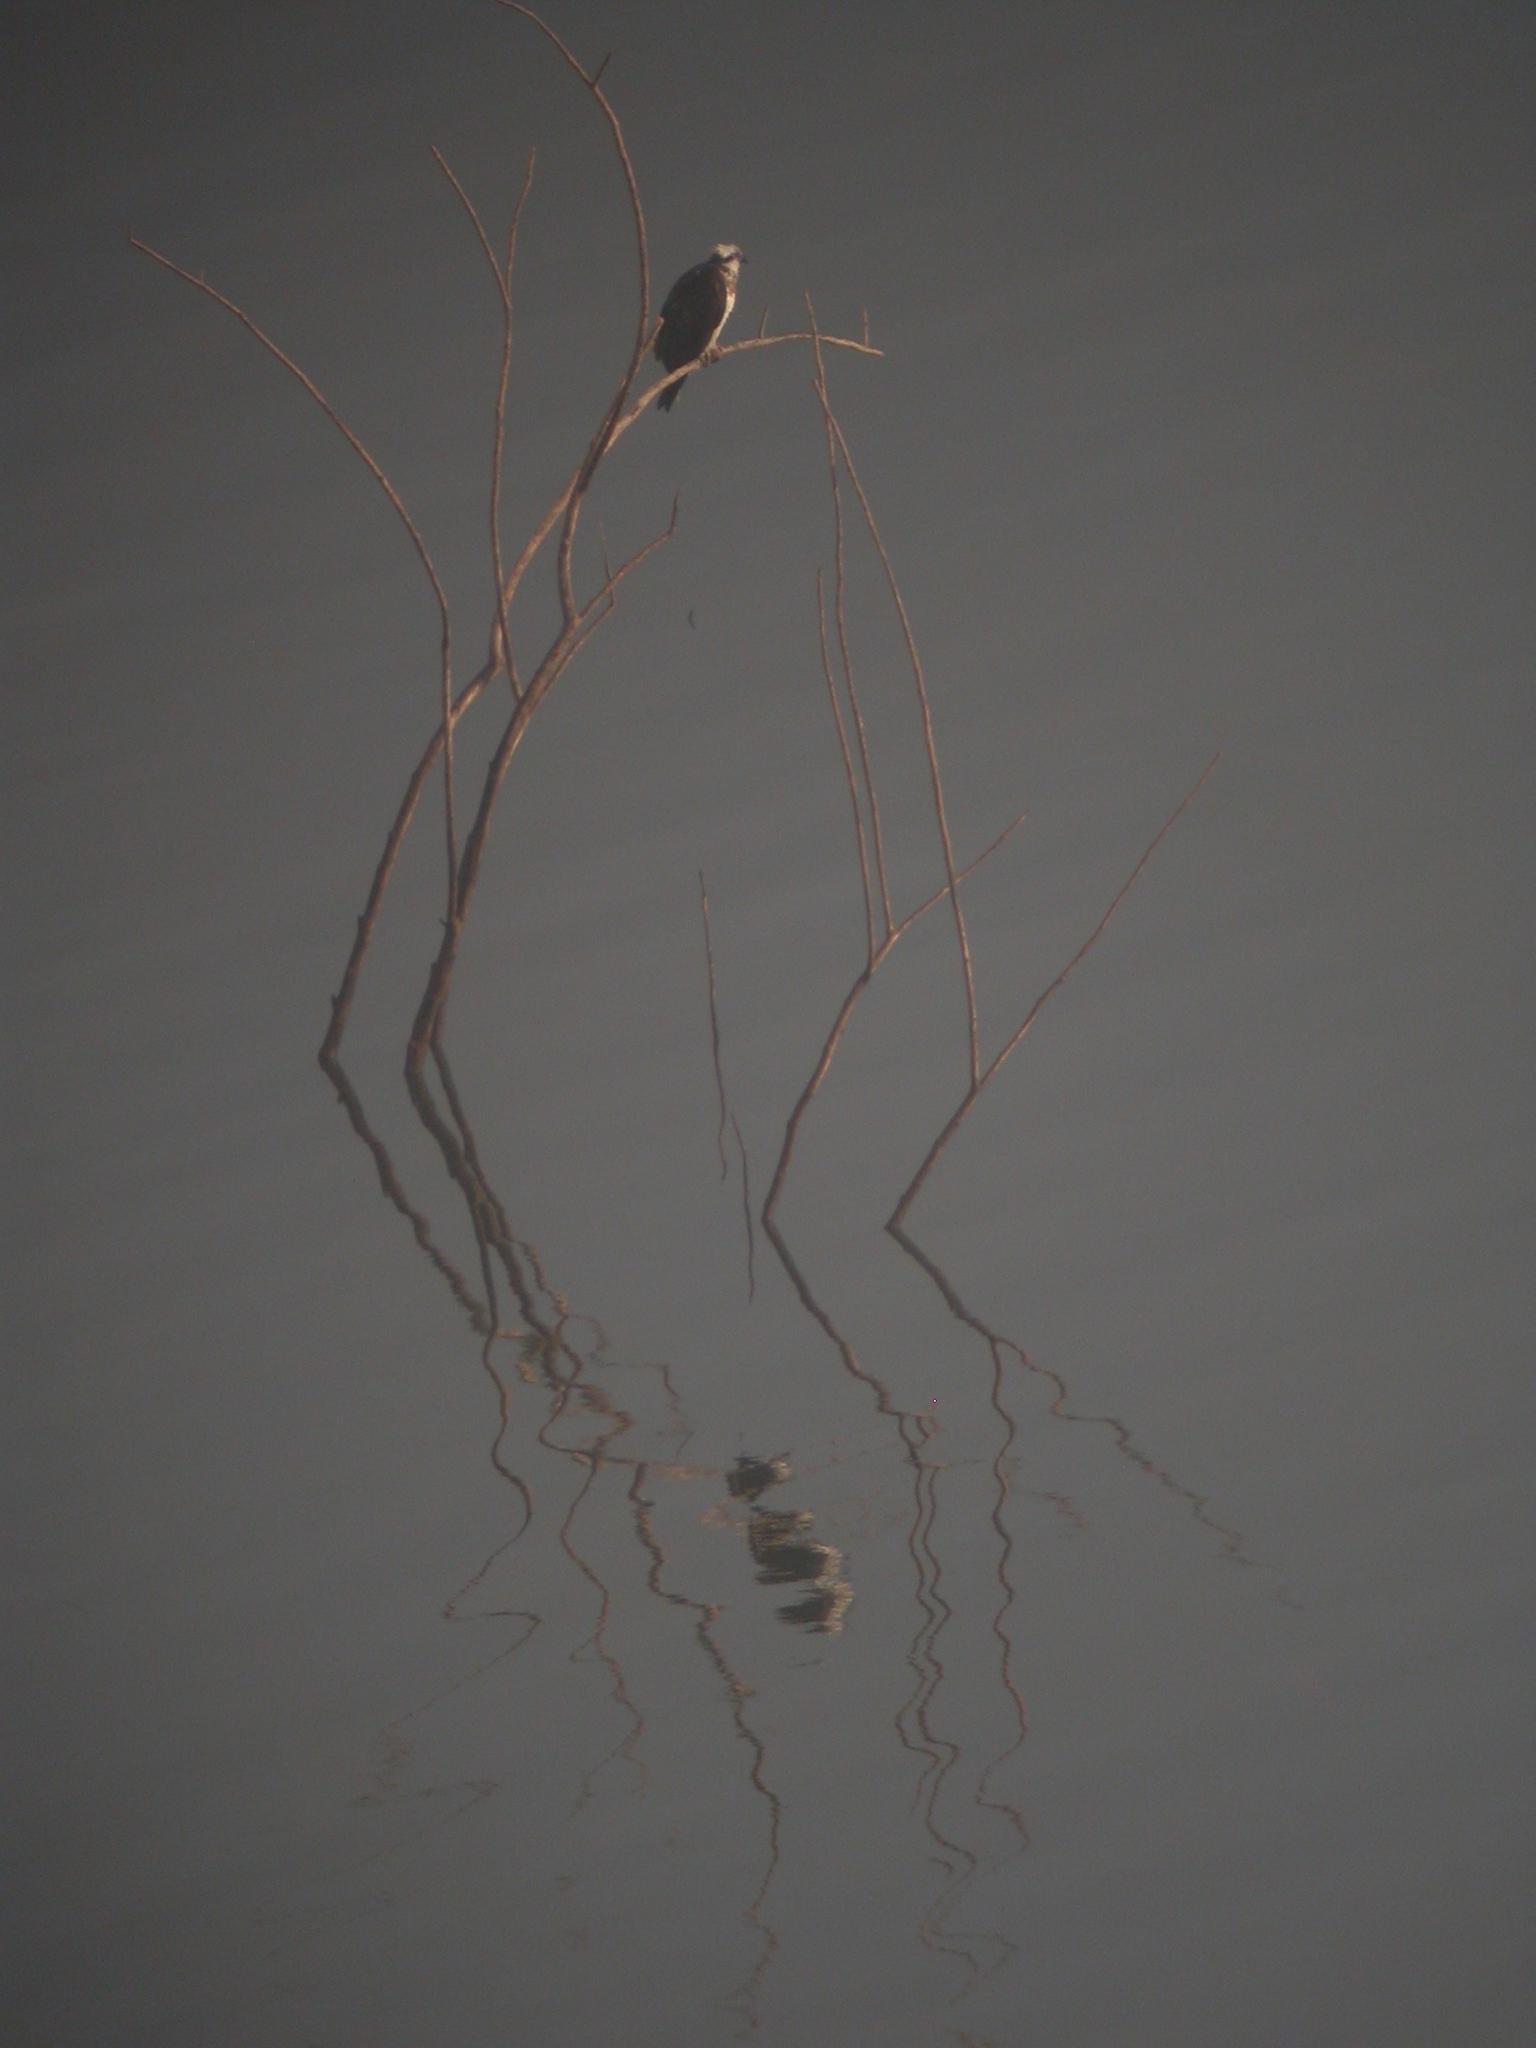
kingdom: Animalia
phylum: Chordata
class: Aves
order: Accipitriformes
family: Pandionidae
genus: Pandion
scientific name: Pandion haliaetus
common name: Osprey
